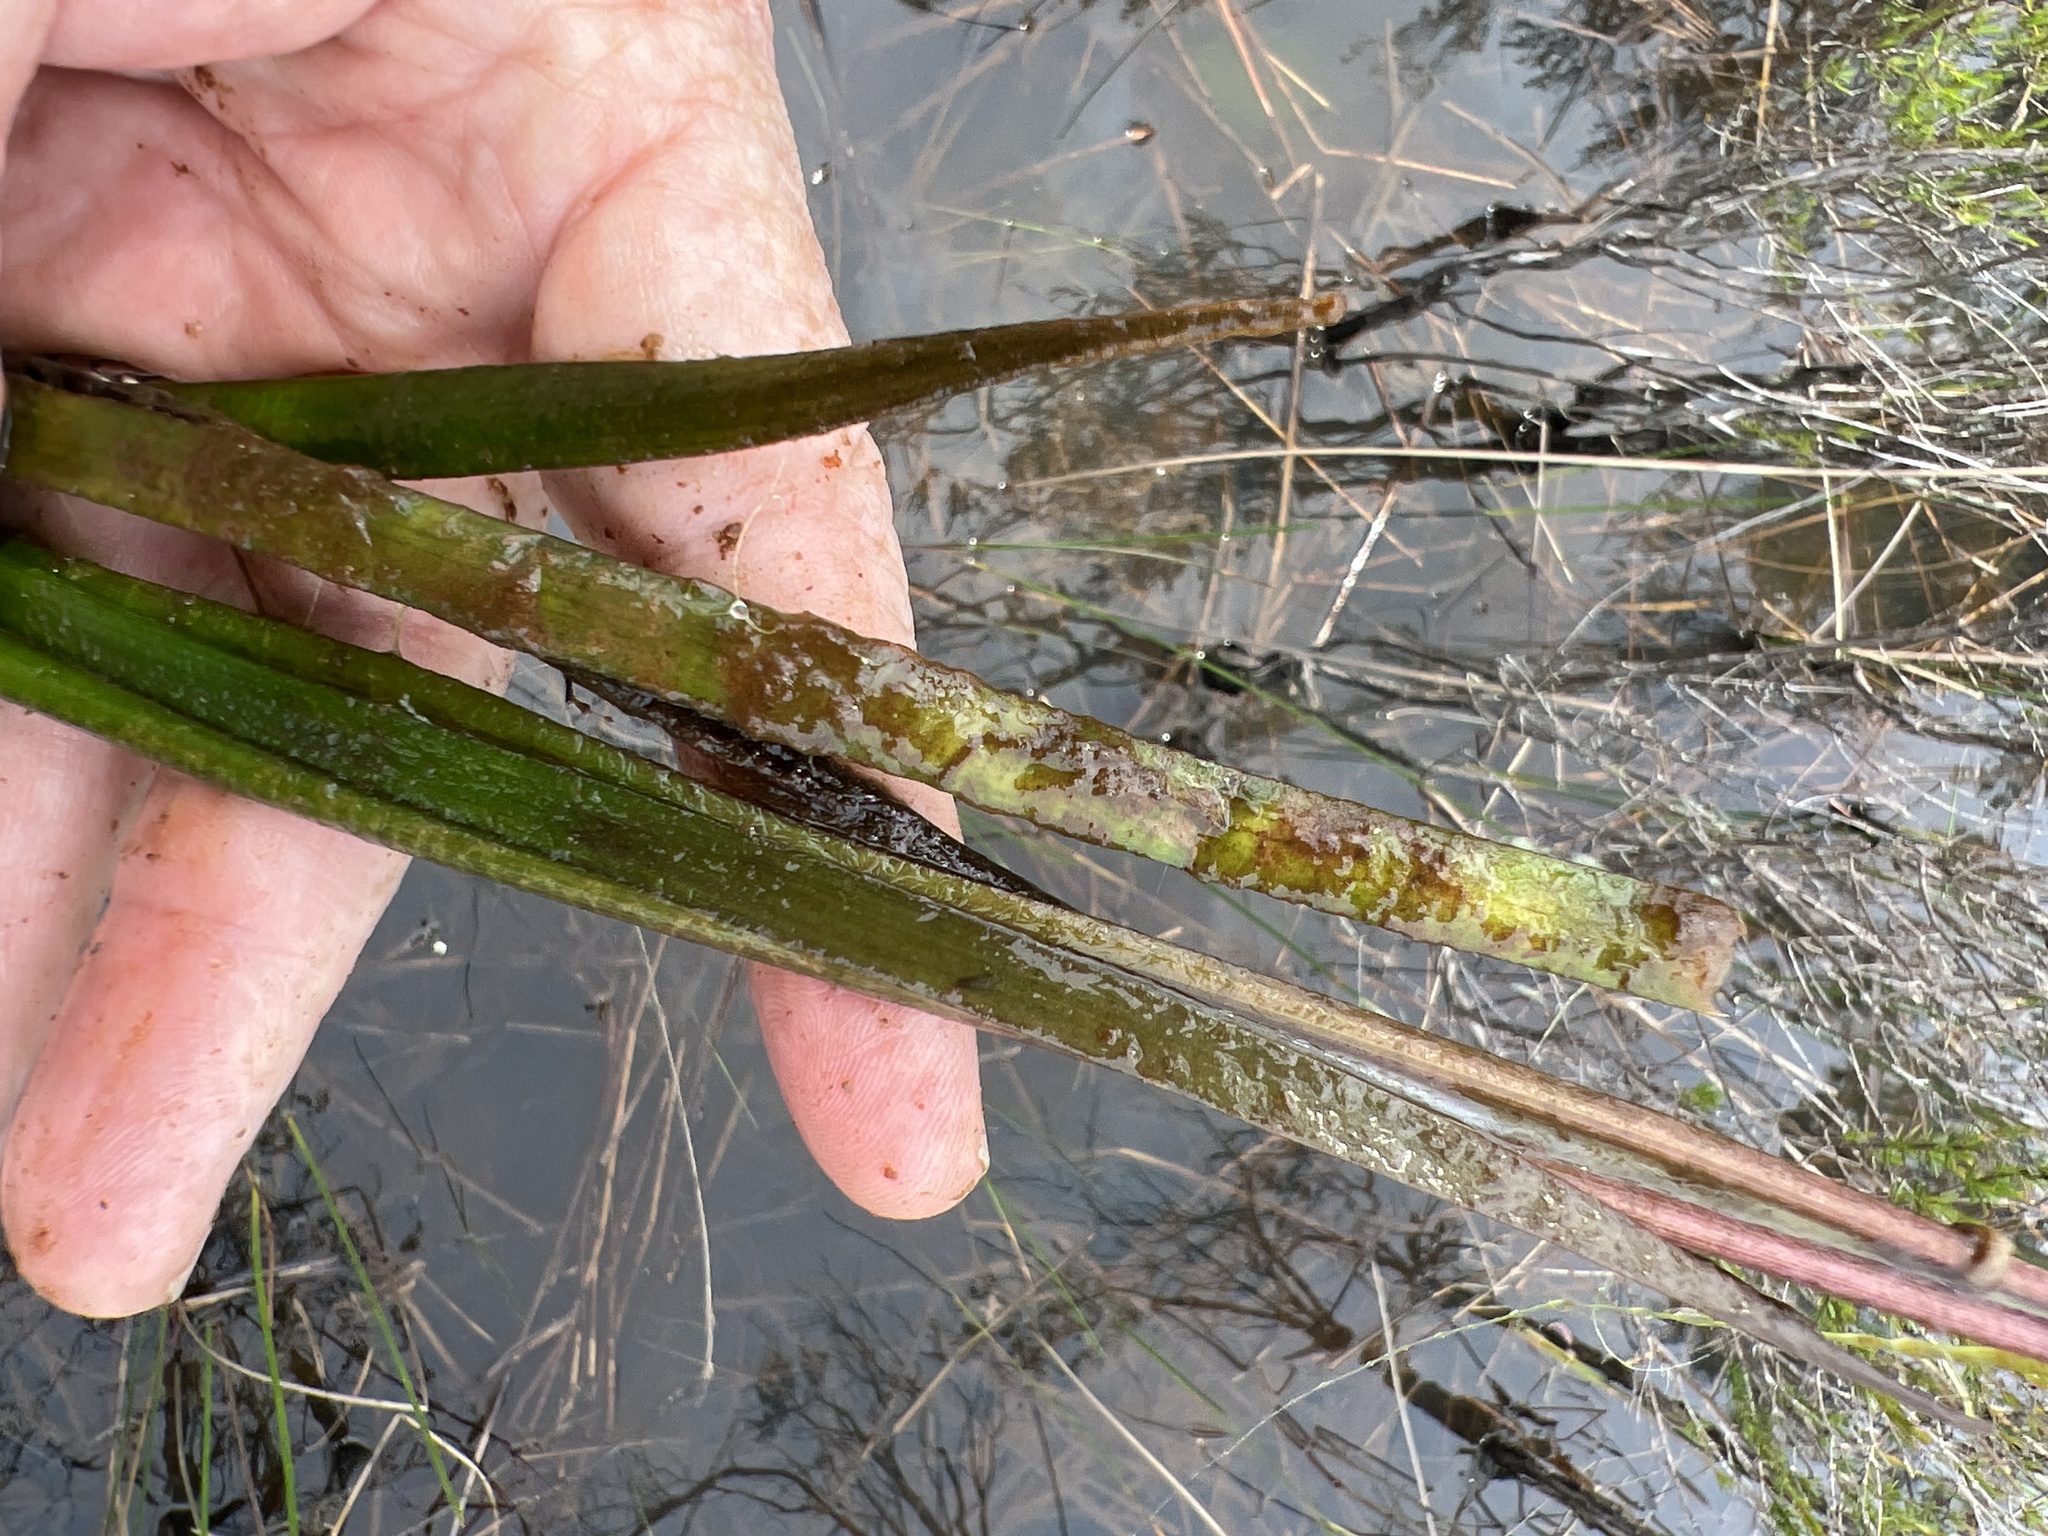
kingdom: Plantae
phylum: Tracheophyta
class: Liliopsida
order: Alismatales
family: Alismataceae
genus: Sagittaria
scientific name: Sagittaria chapmanii
